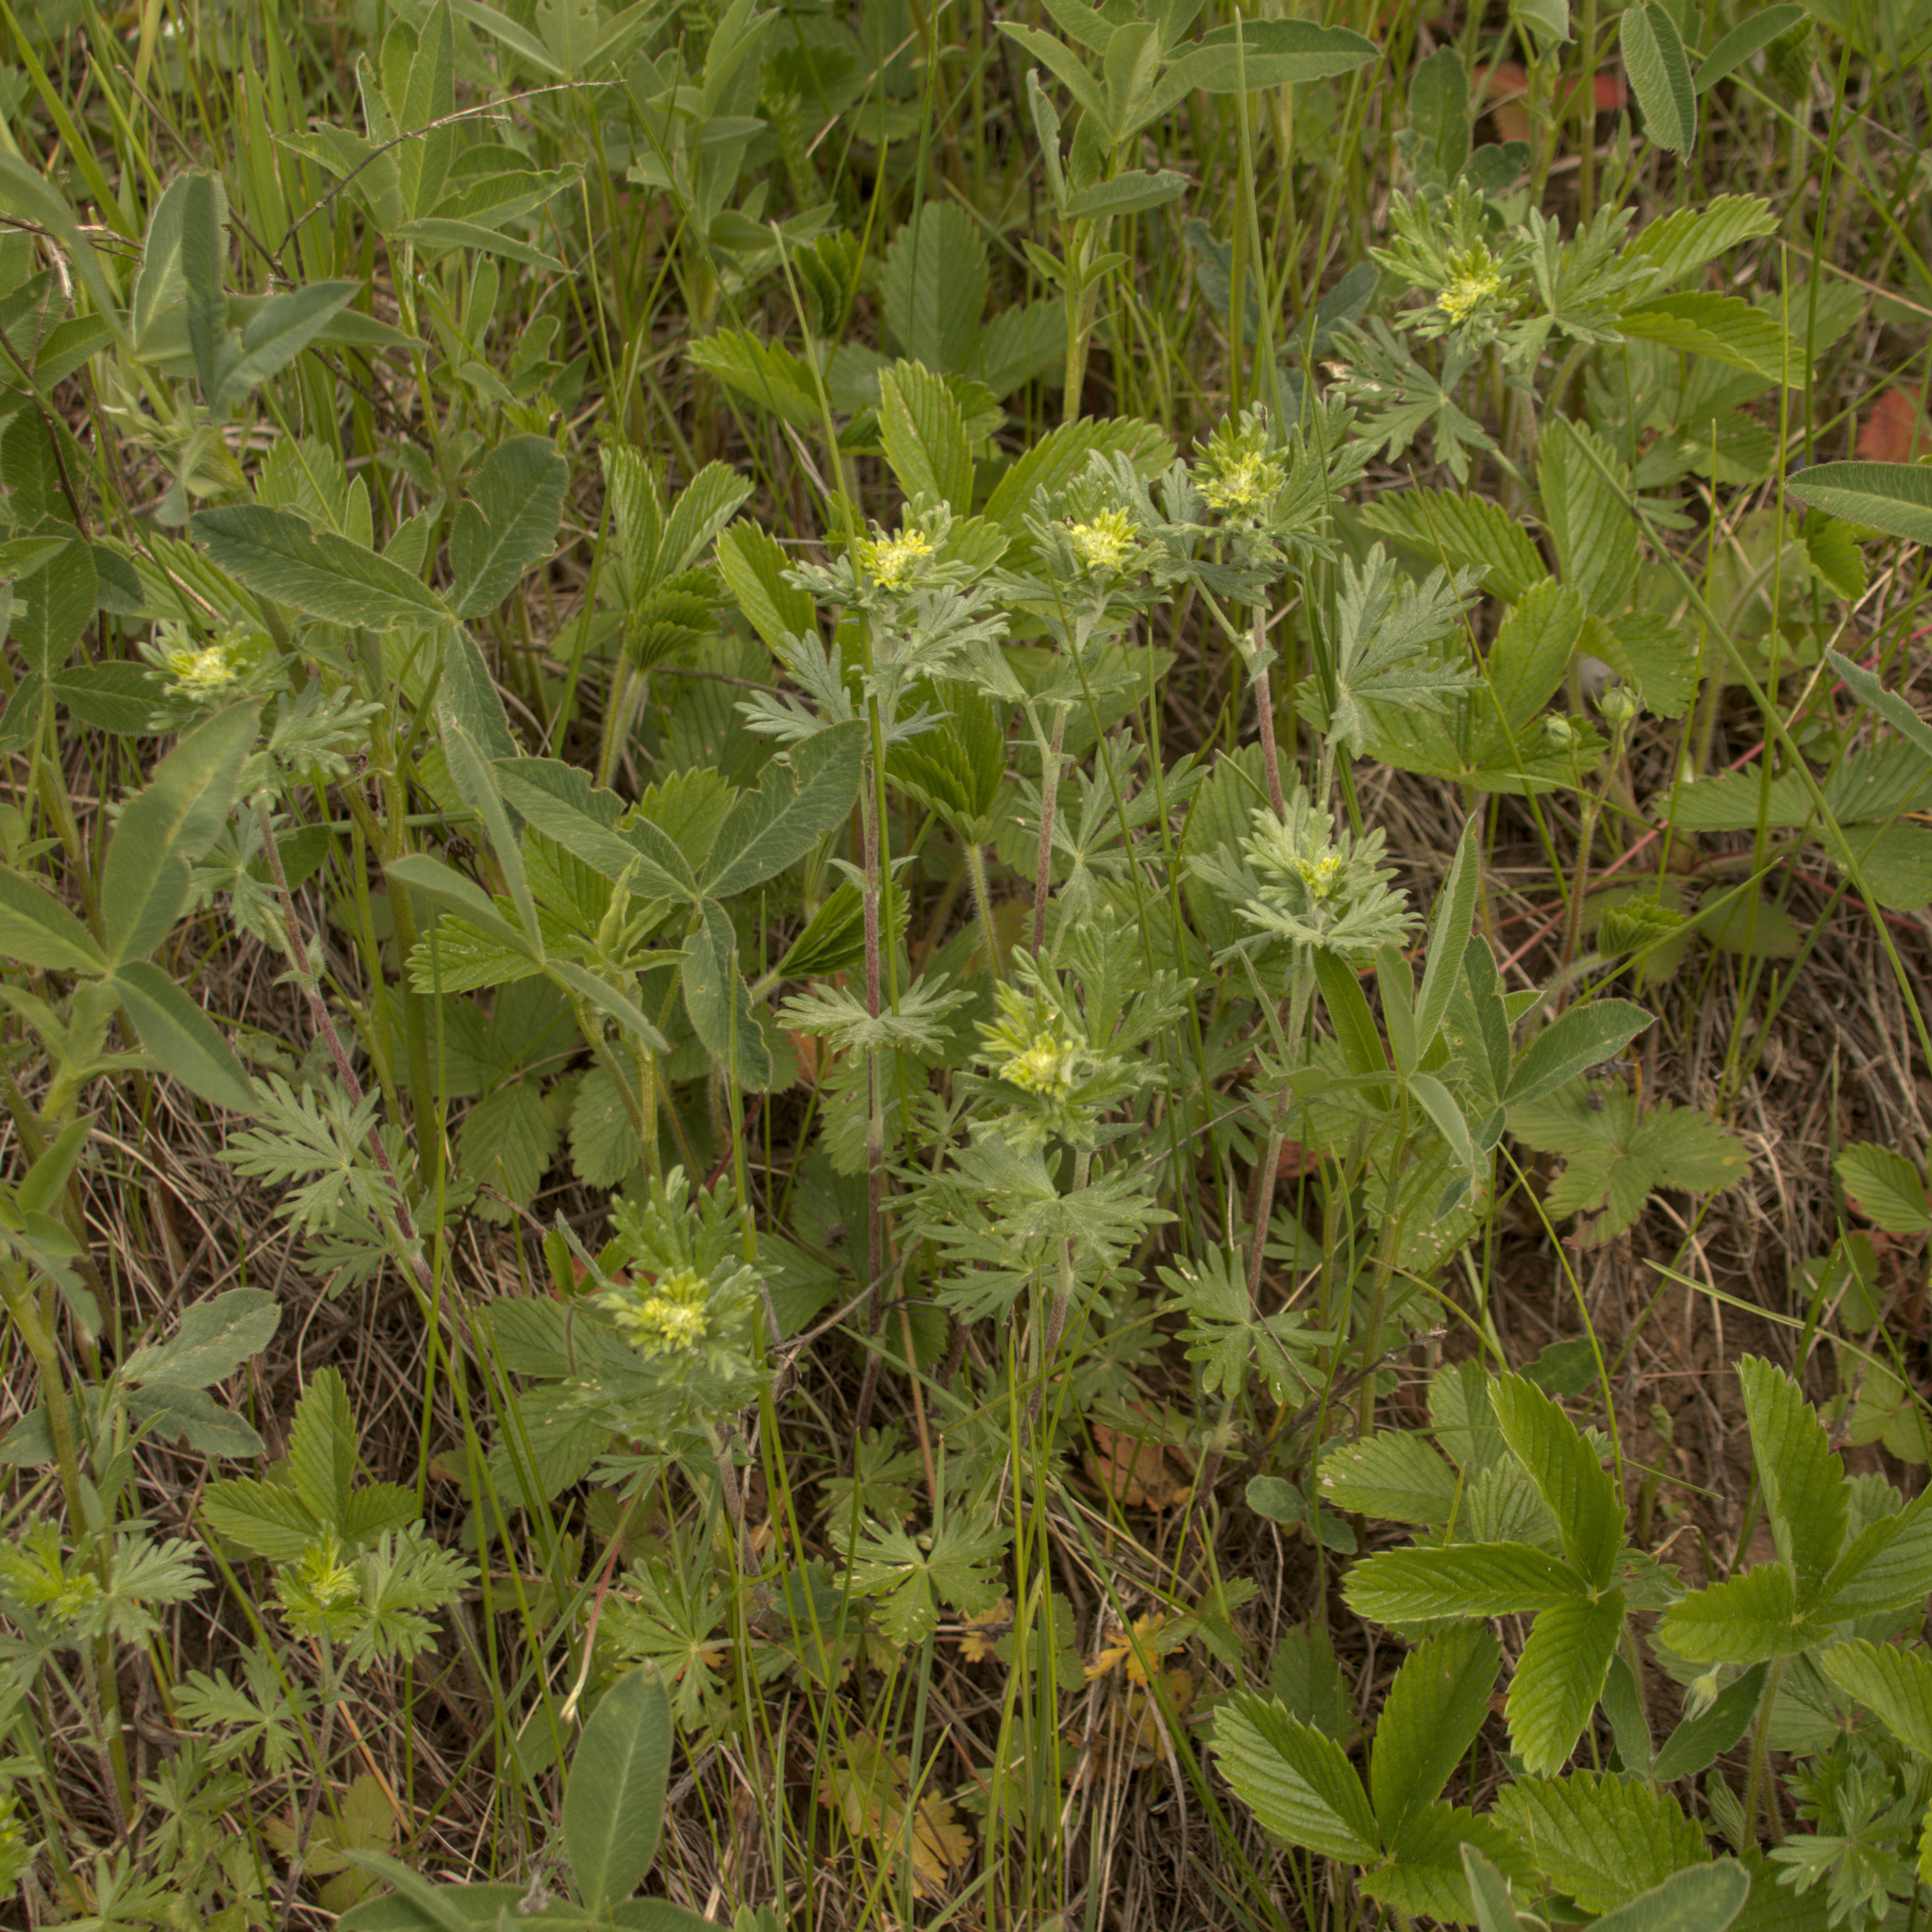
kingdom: Plantae
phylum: Tracheophyta
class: Magnoliopsida
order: Rosales
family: Rosaceae
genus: Potentilla
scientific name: Potentilla argentea
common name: Hoary cinquefoil
